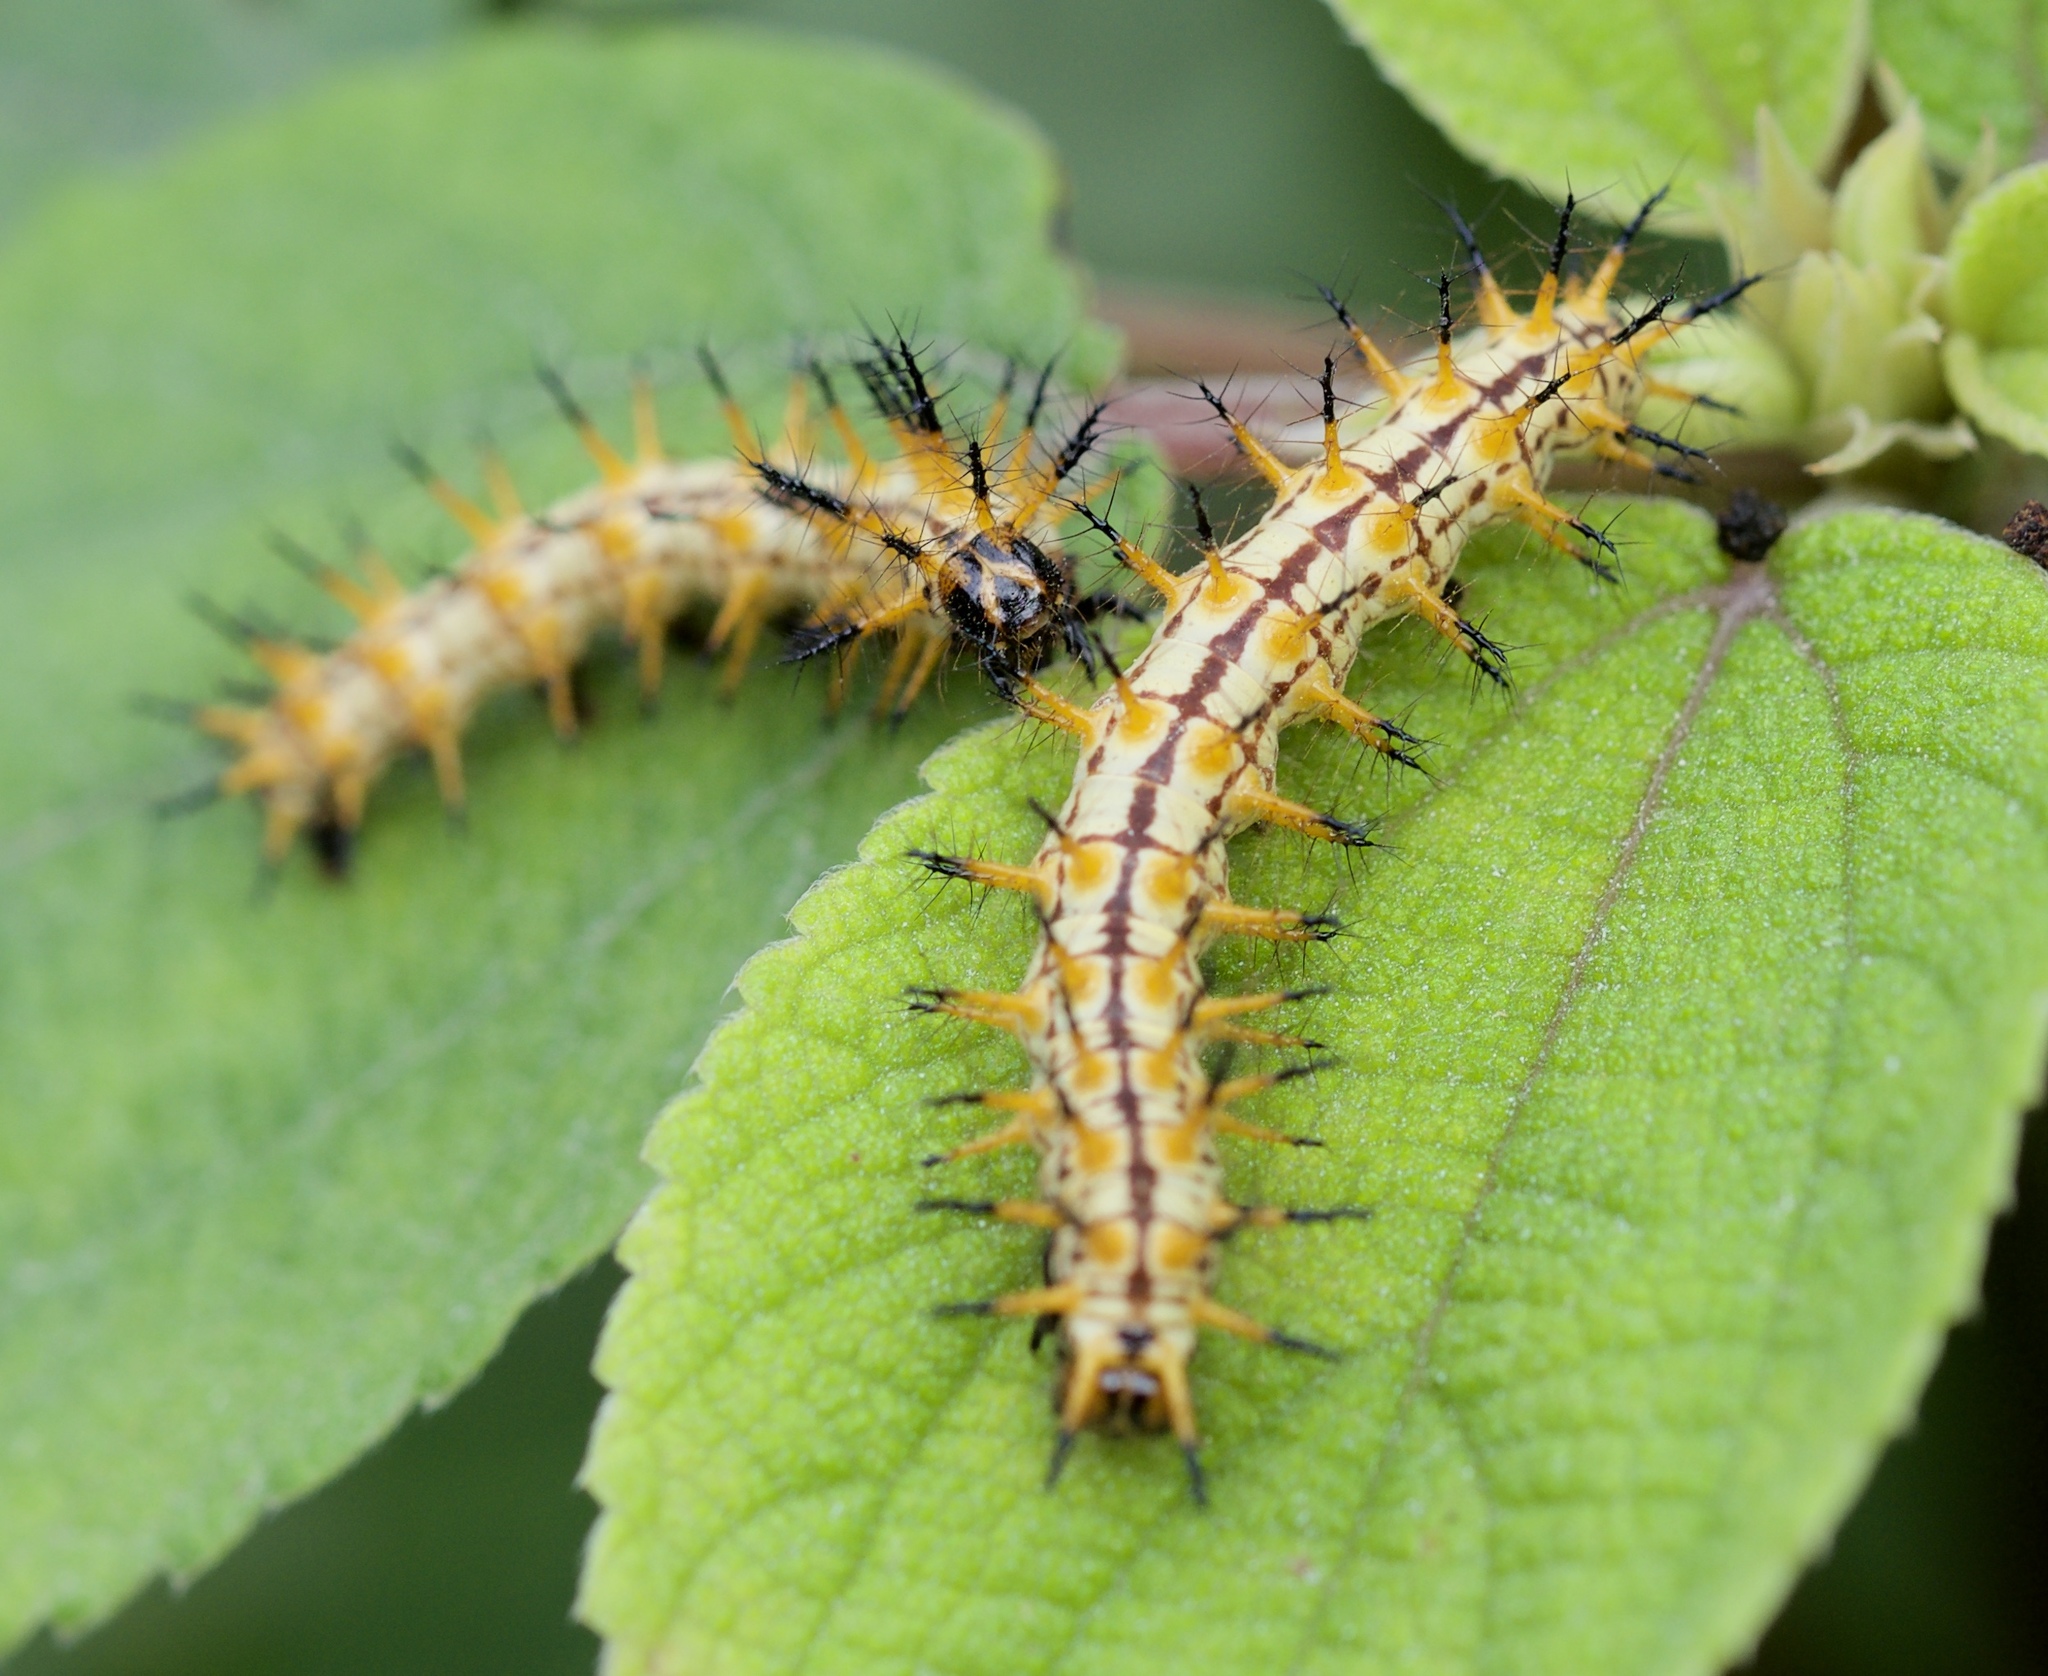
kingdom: Animalia
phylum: Arthropoda
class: Insecta
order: Lepidoptera
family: Nymphalidae
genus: Acraea
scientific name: Acraea Telchinia issoria
